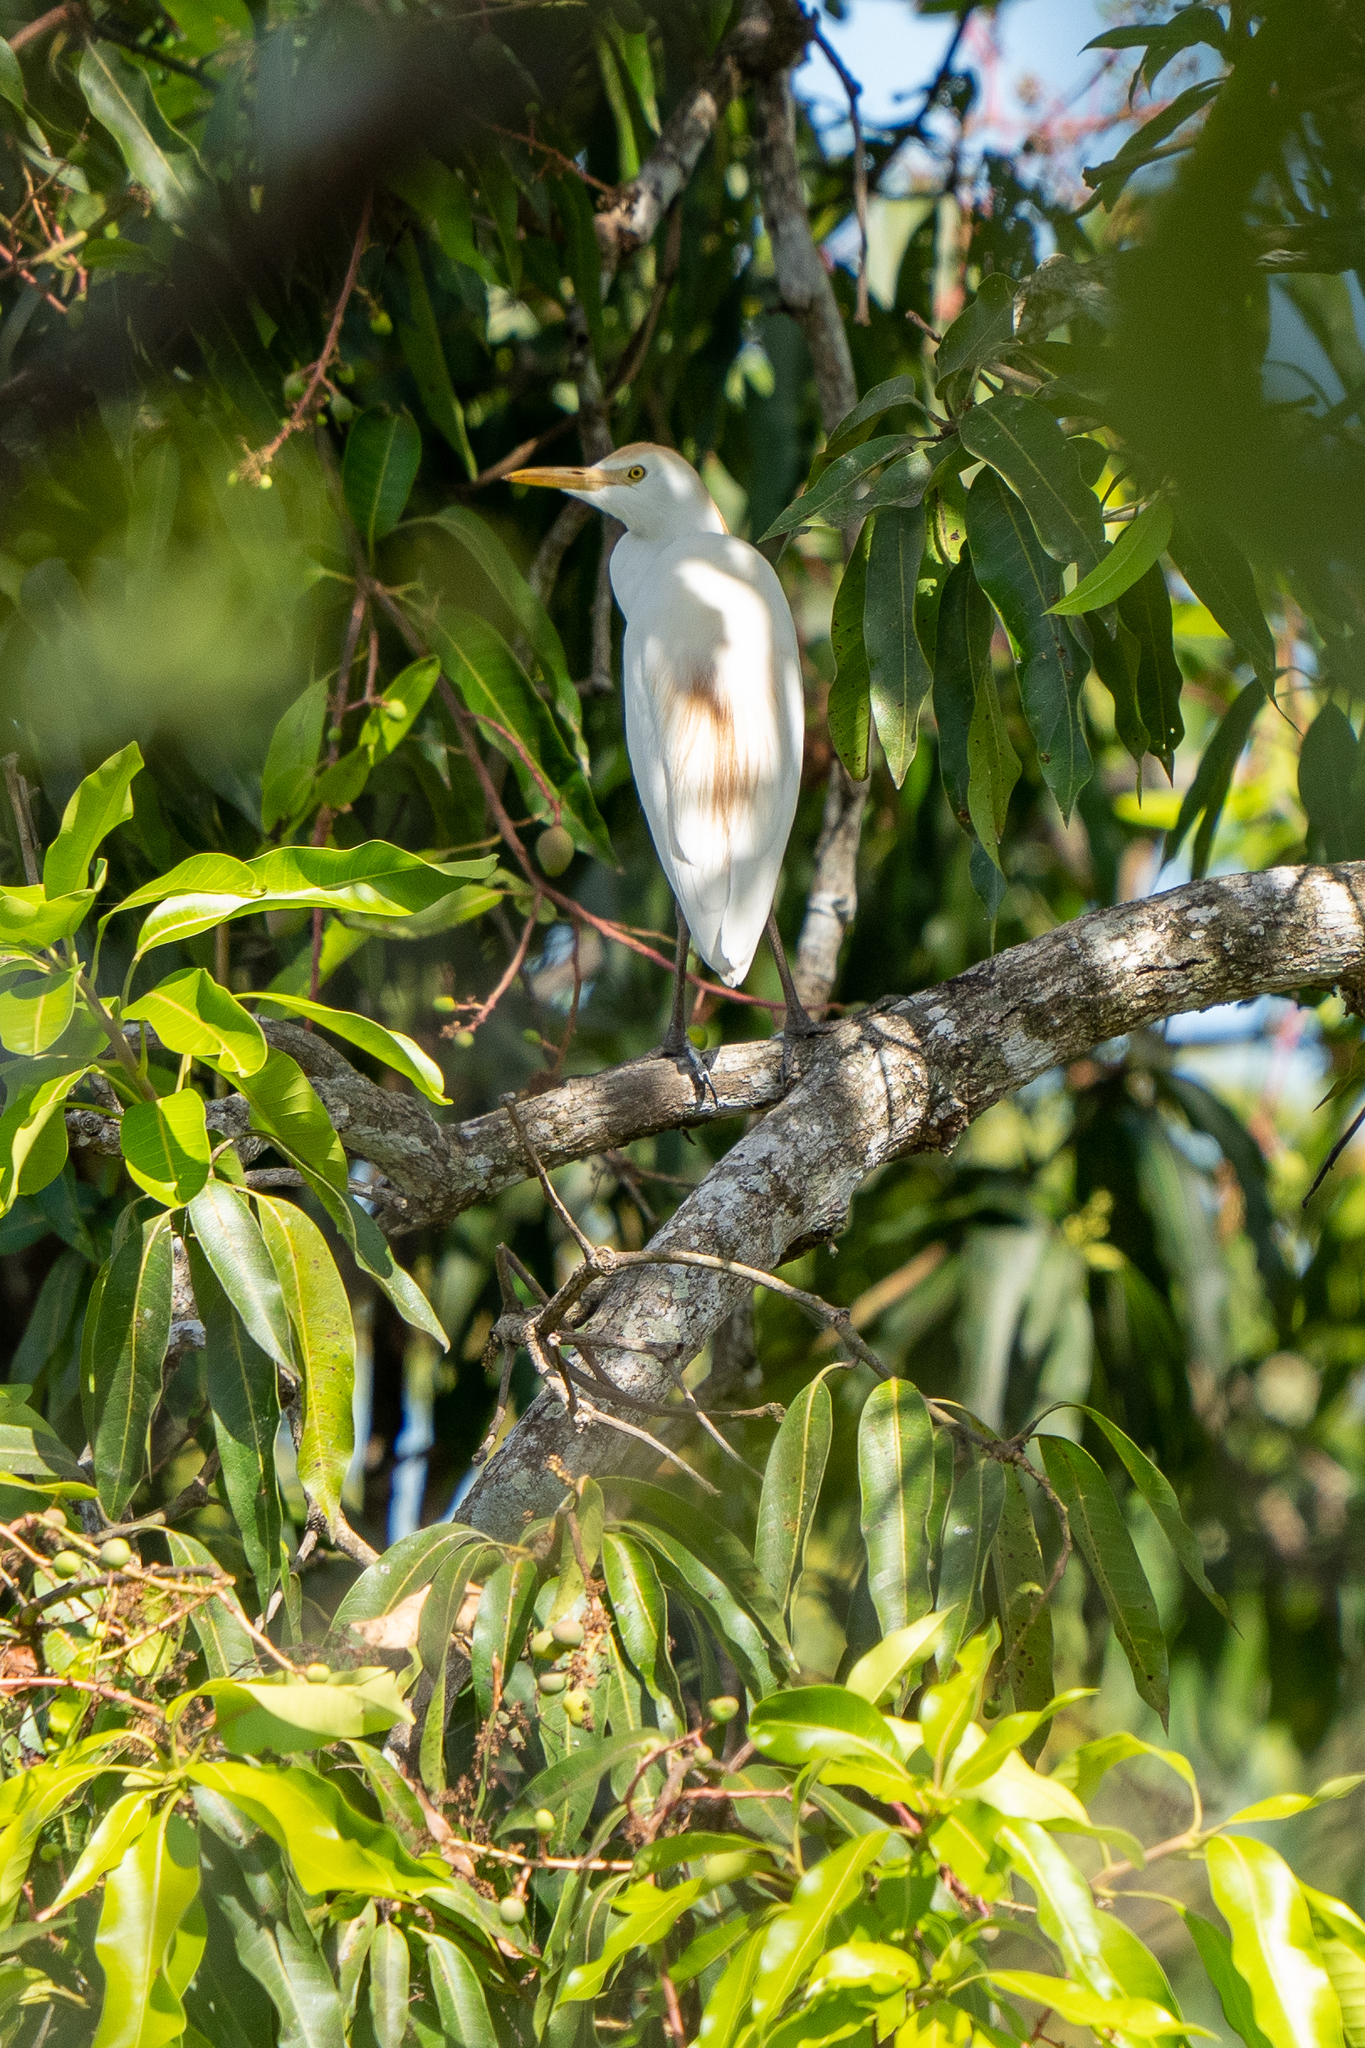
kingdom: Animalia
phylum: Chordata
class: Aves
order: Pelecaniformes
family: Ardeidae
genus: Bubulcus
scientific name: Bubulcus ibis
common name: Cattle egret
